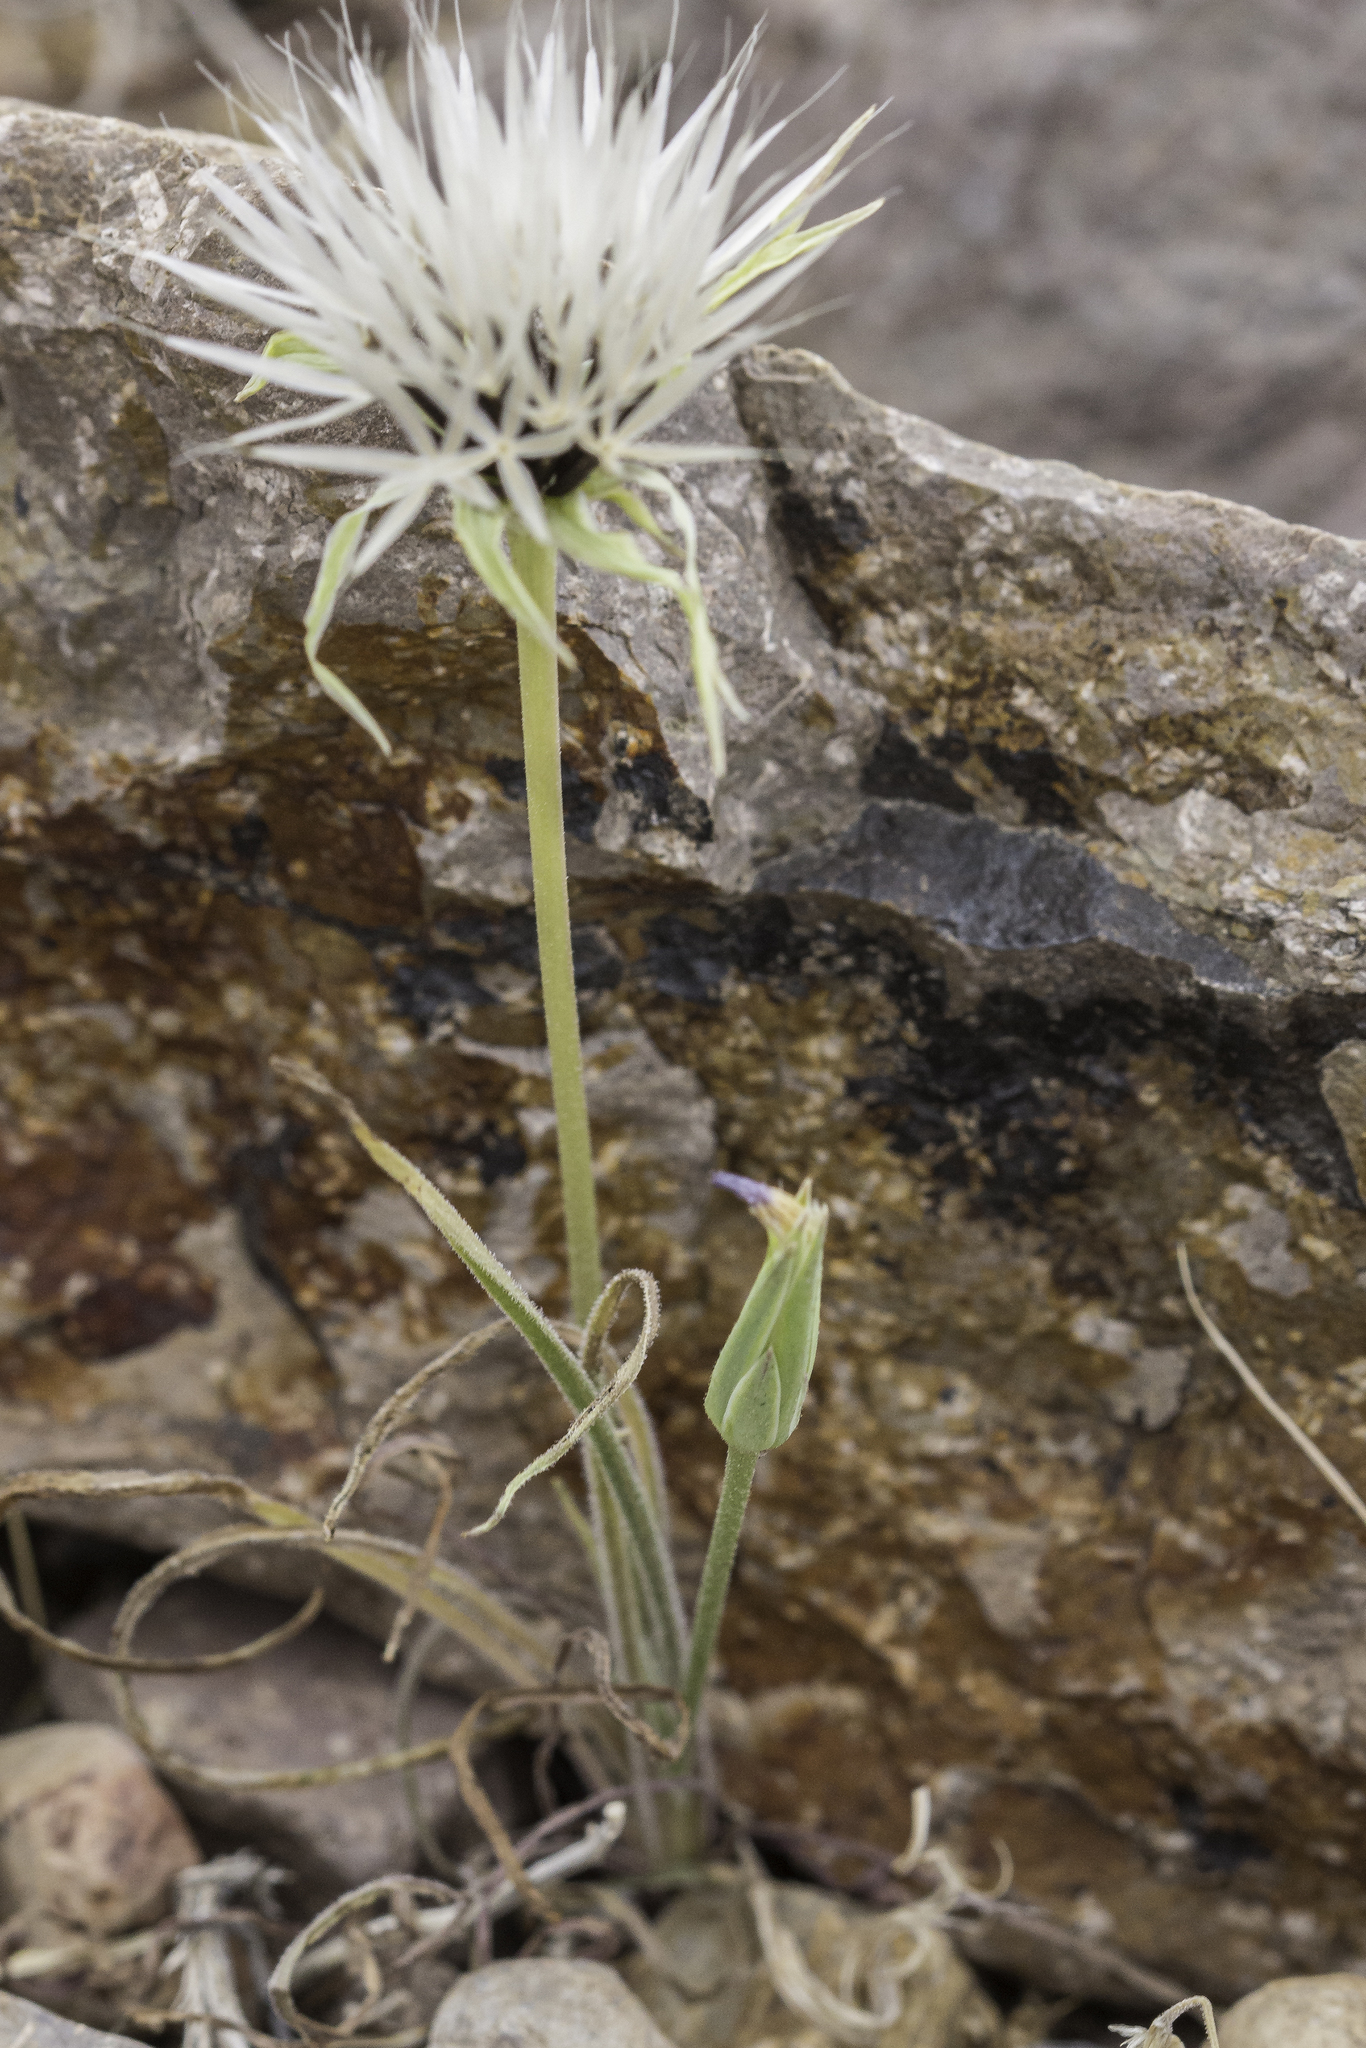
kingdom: Plantae
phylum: Tracheophyta
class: Magnoliopsida
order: Asterales
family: Asteraceae
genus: Microseris
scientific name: Microseris lindleyi
